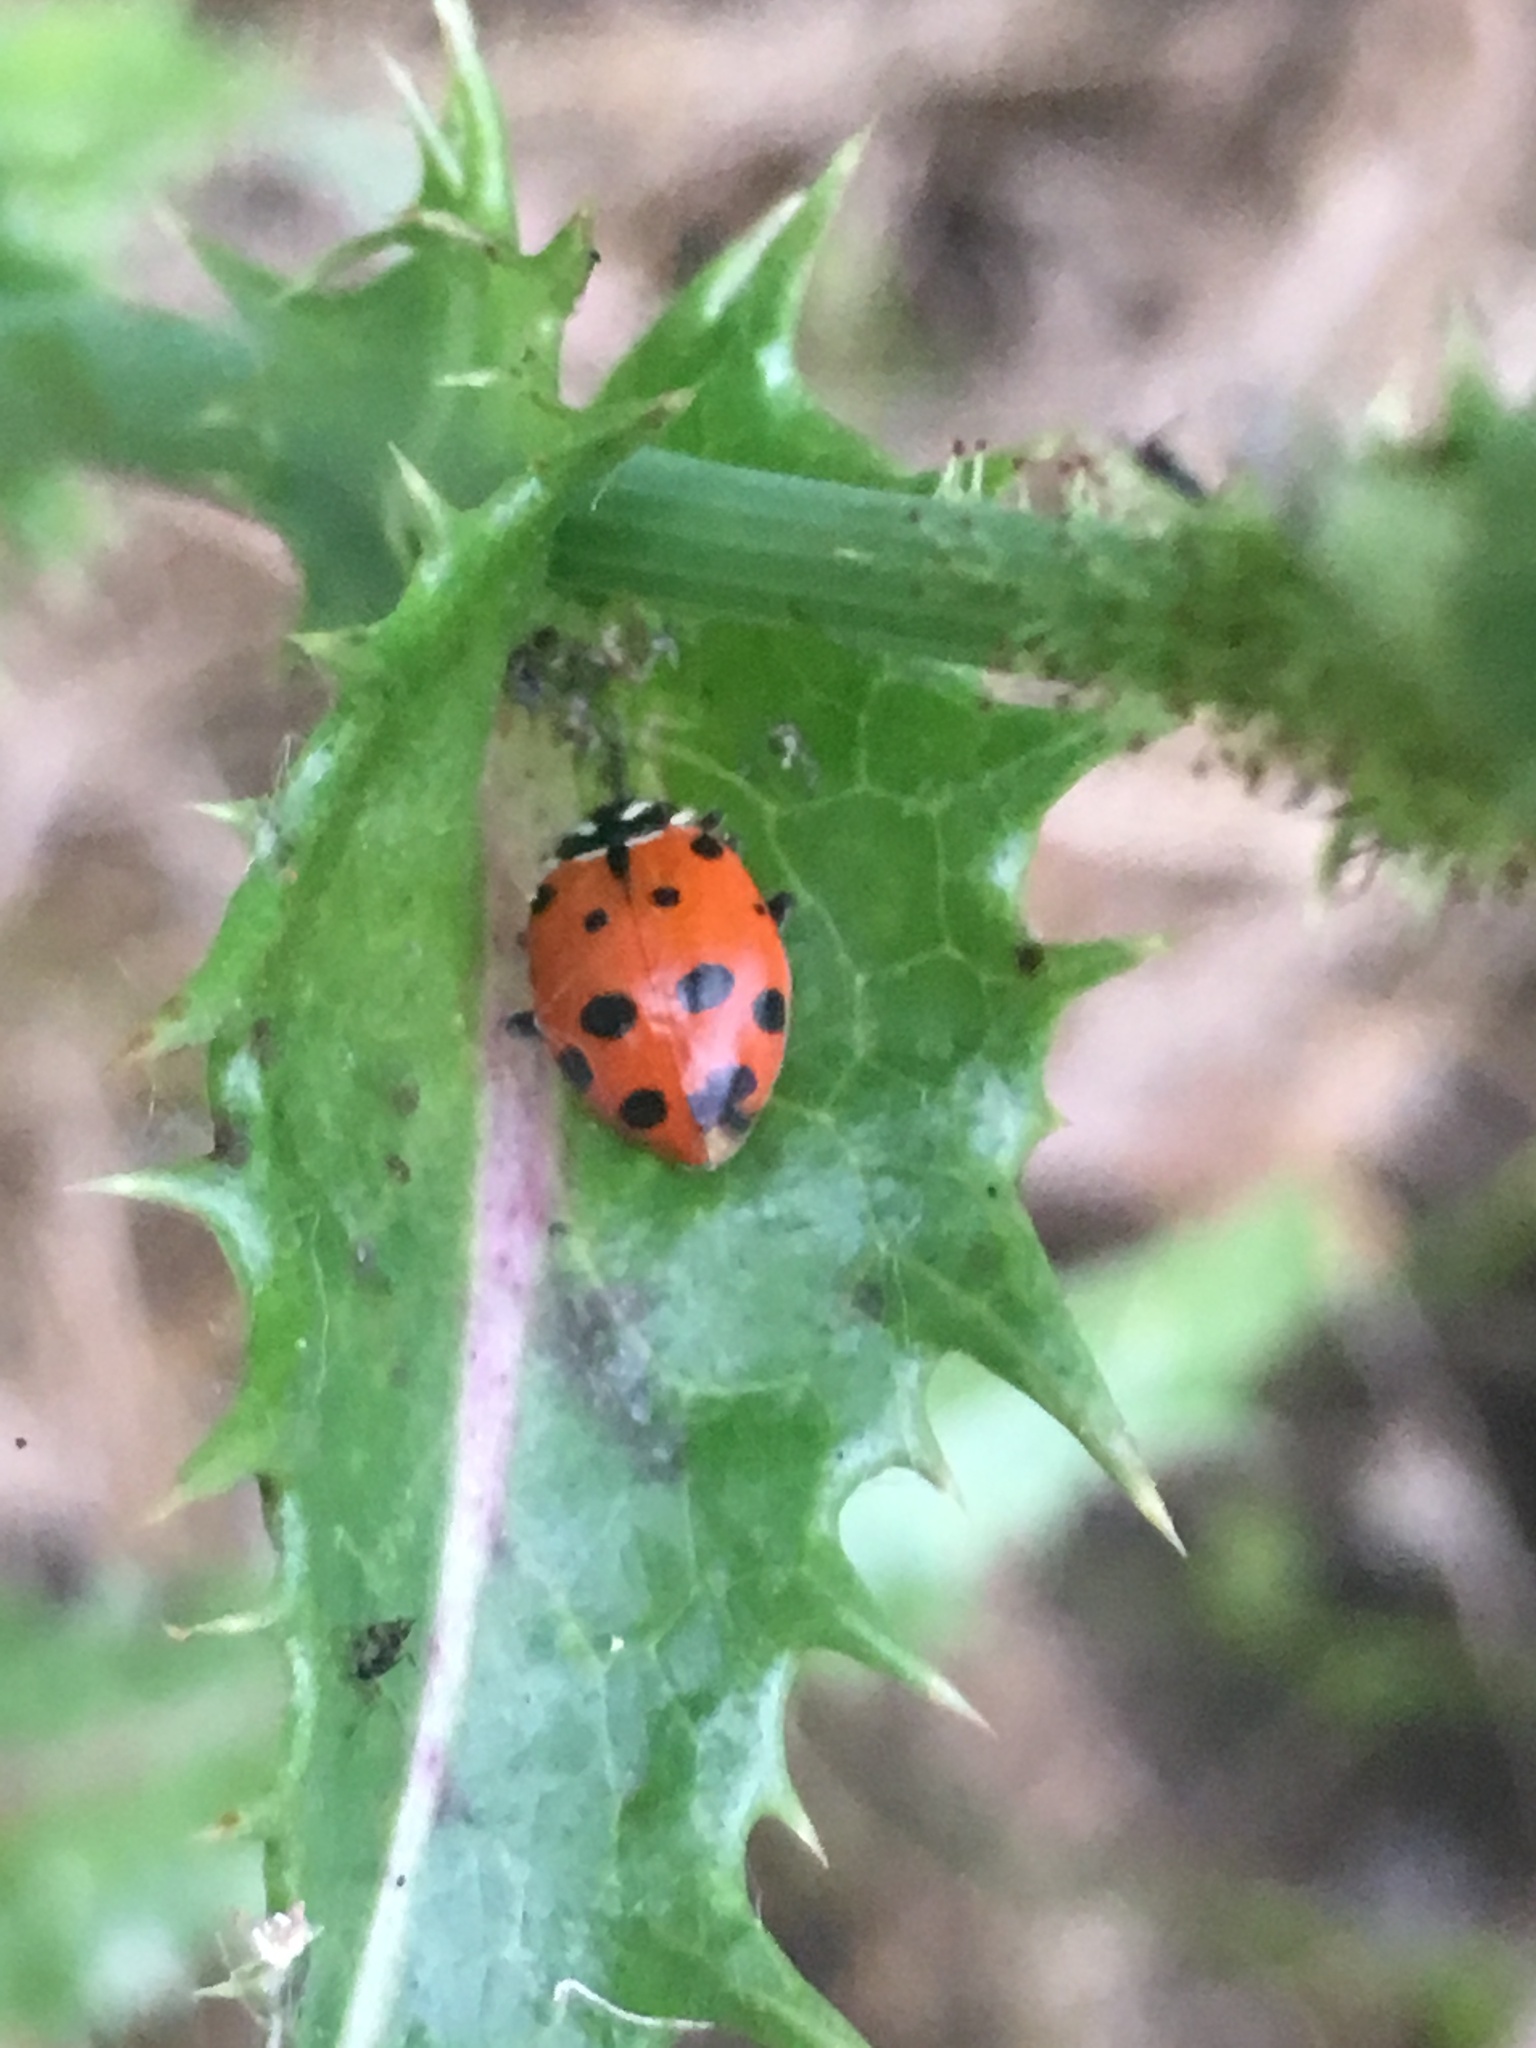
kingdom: Animalia
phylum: Arthropoda
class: Insecta
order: Coleoptera
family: Coccinellidae
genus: Hippodamia
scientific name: Hippodamia convergens
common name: Convergent lady beetle
